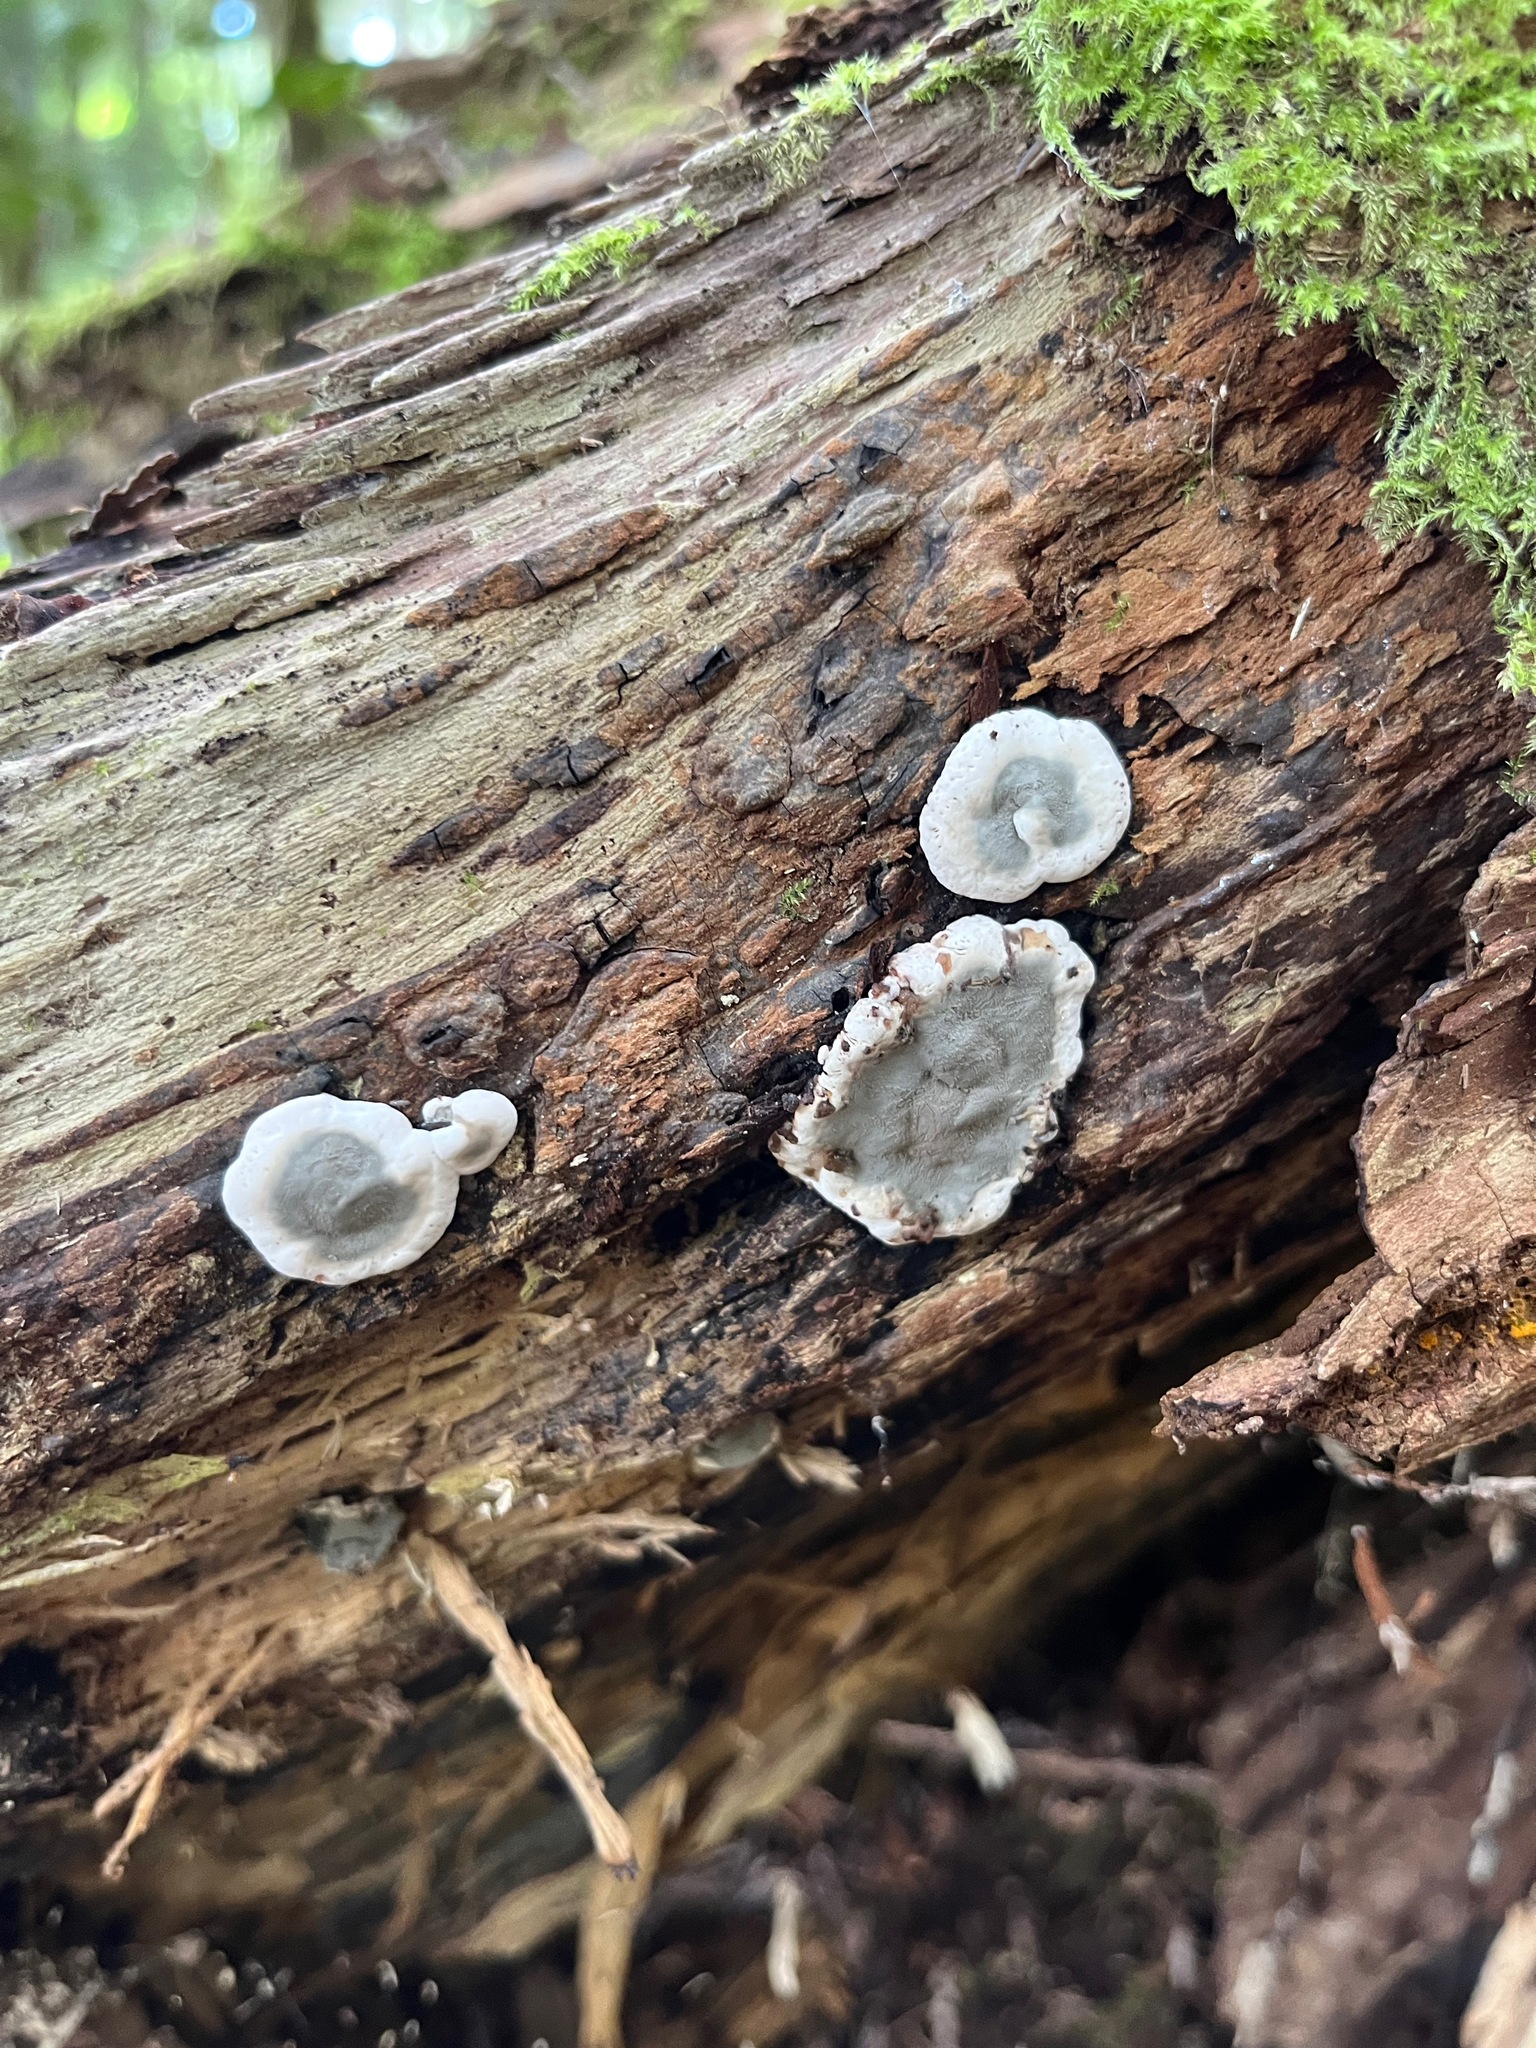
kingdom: Fungi
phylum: Ascomycota
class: Sordariomycetes
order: Xylariales
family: Xylariaceae
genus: Kretzschmaria
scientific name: Kretzschmaria deusta
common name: Brittle cinder
